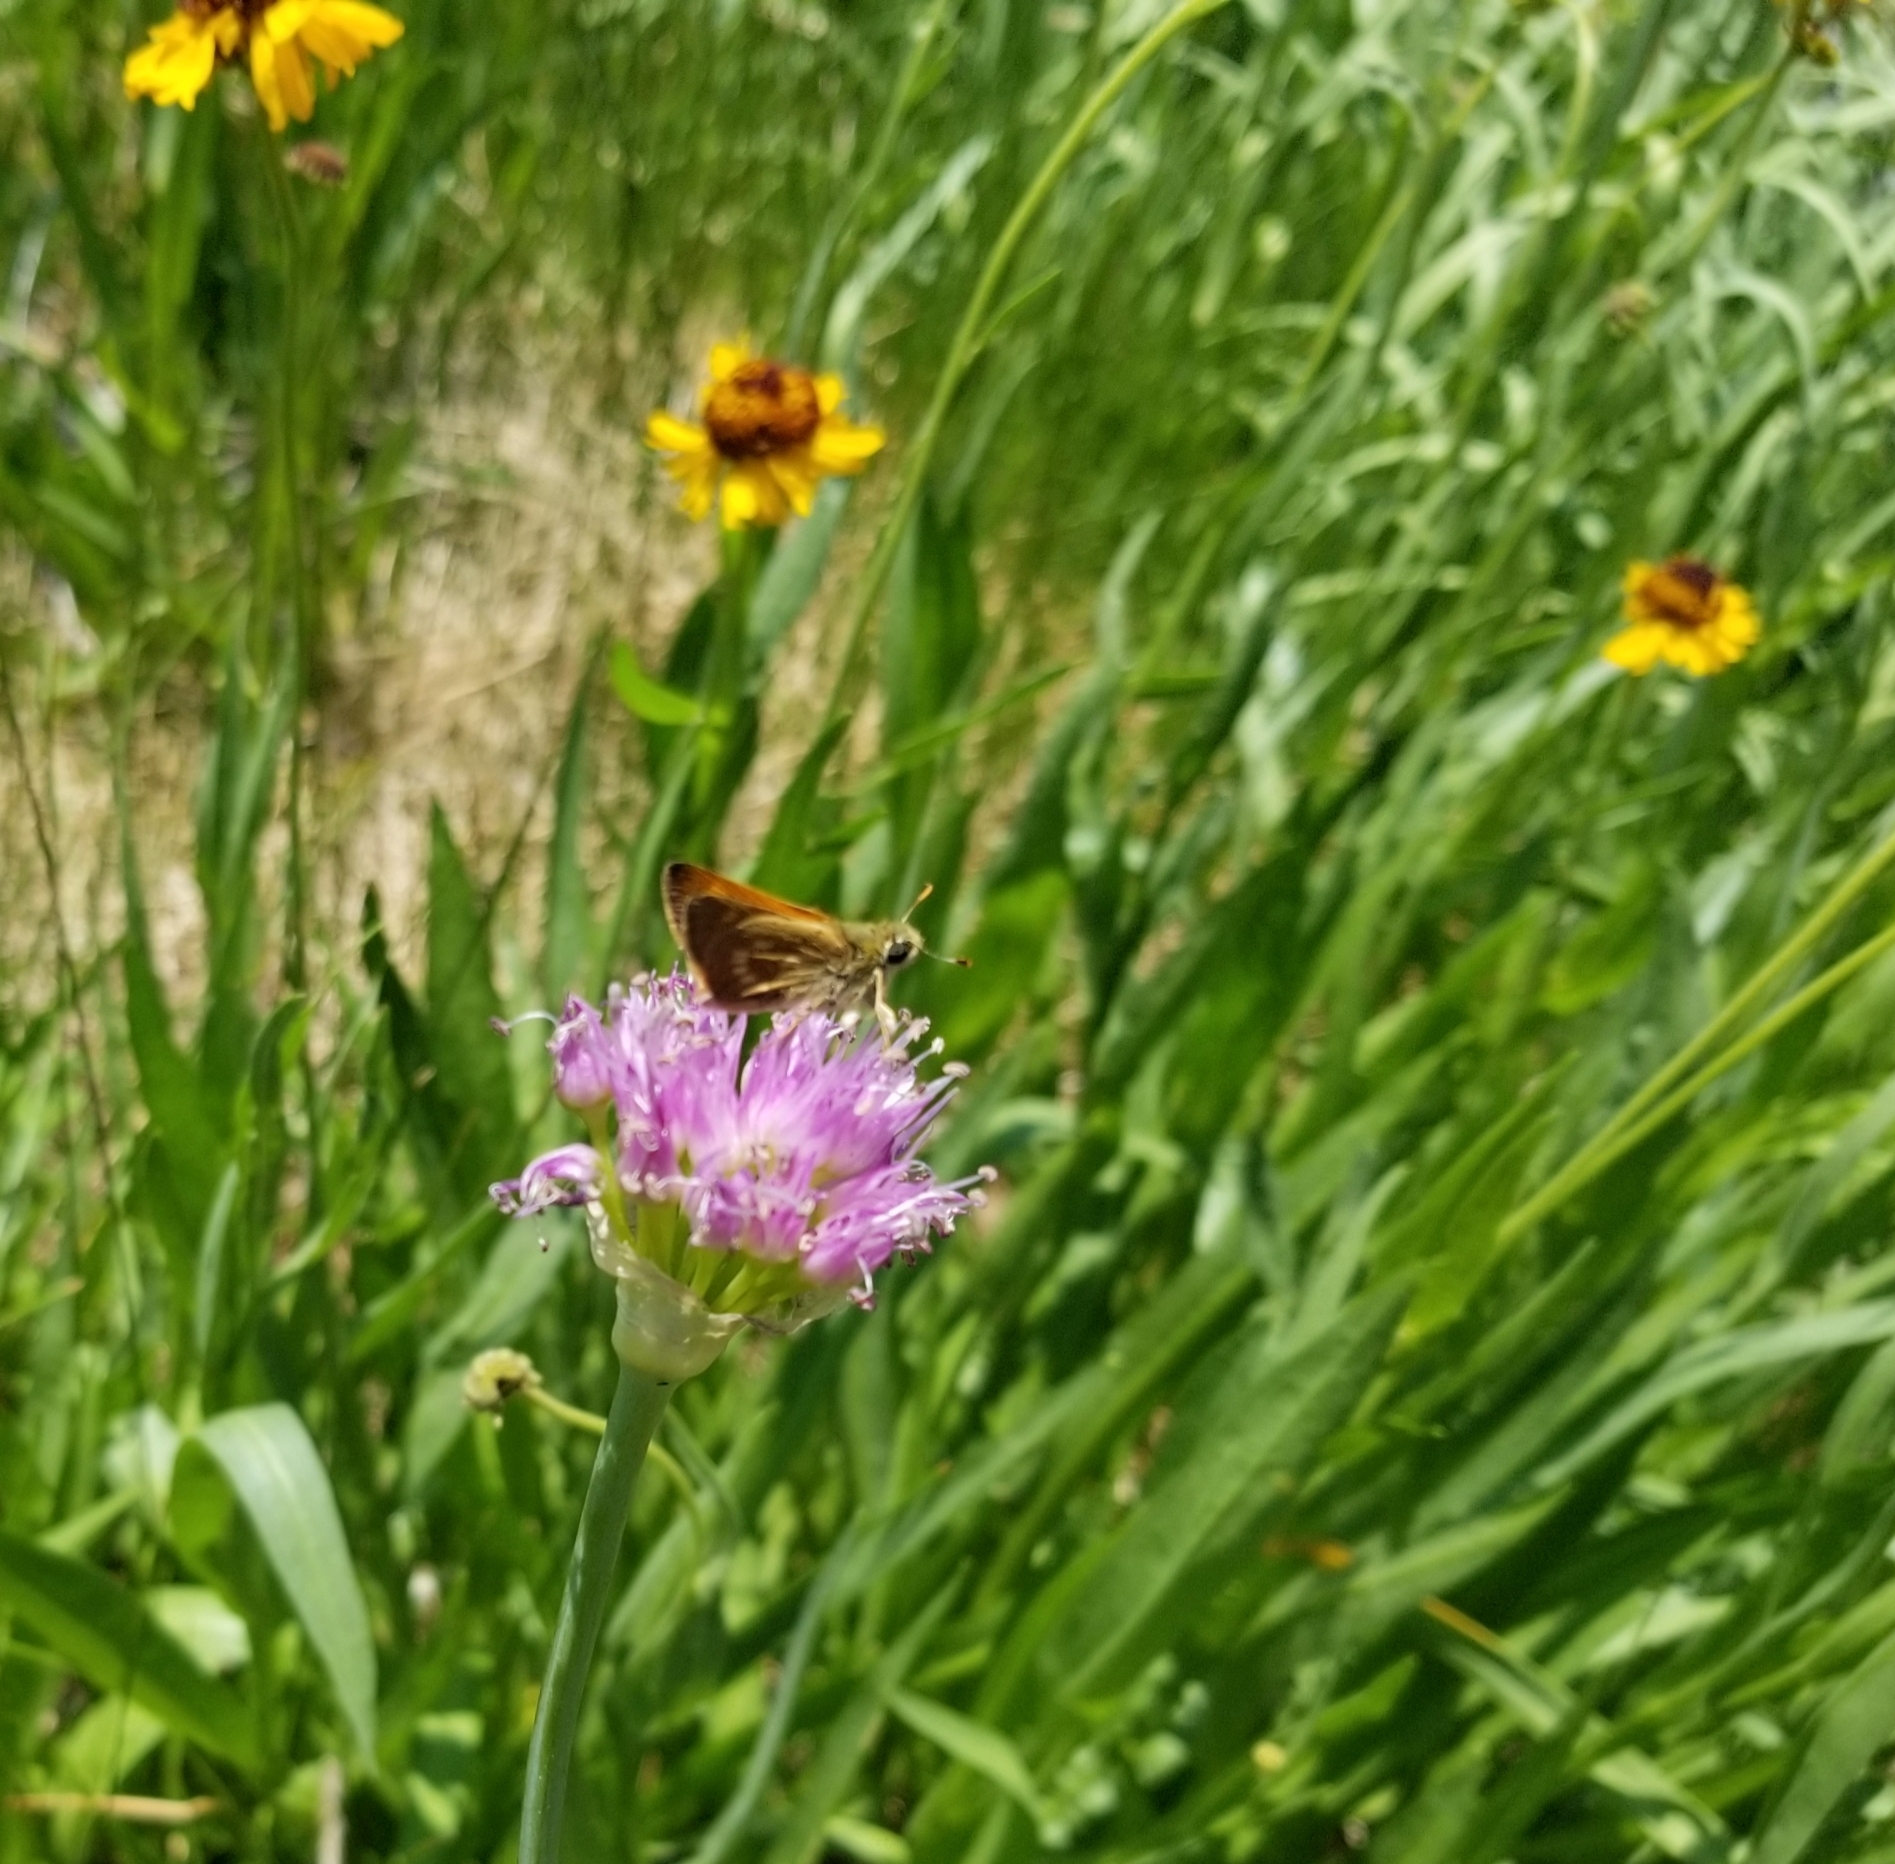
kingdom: Animalia
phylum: Arthropoda
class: Insecta
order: Lepidoptera
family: Hesperiidae
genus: Polites
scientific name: Polites mystic
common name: Long dash
